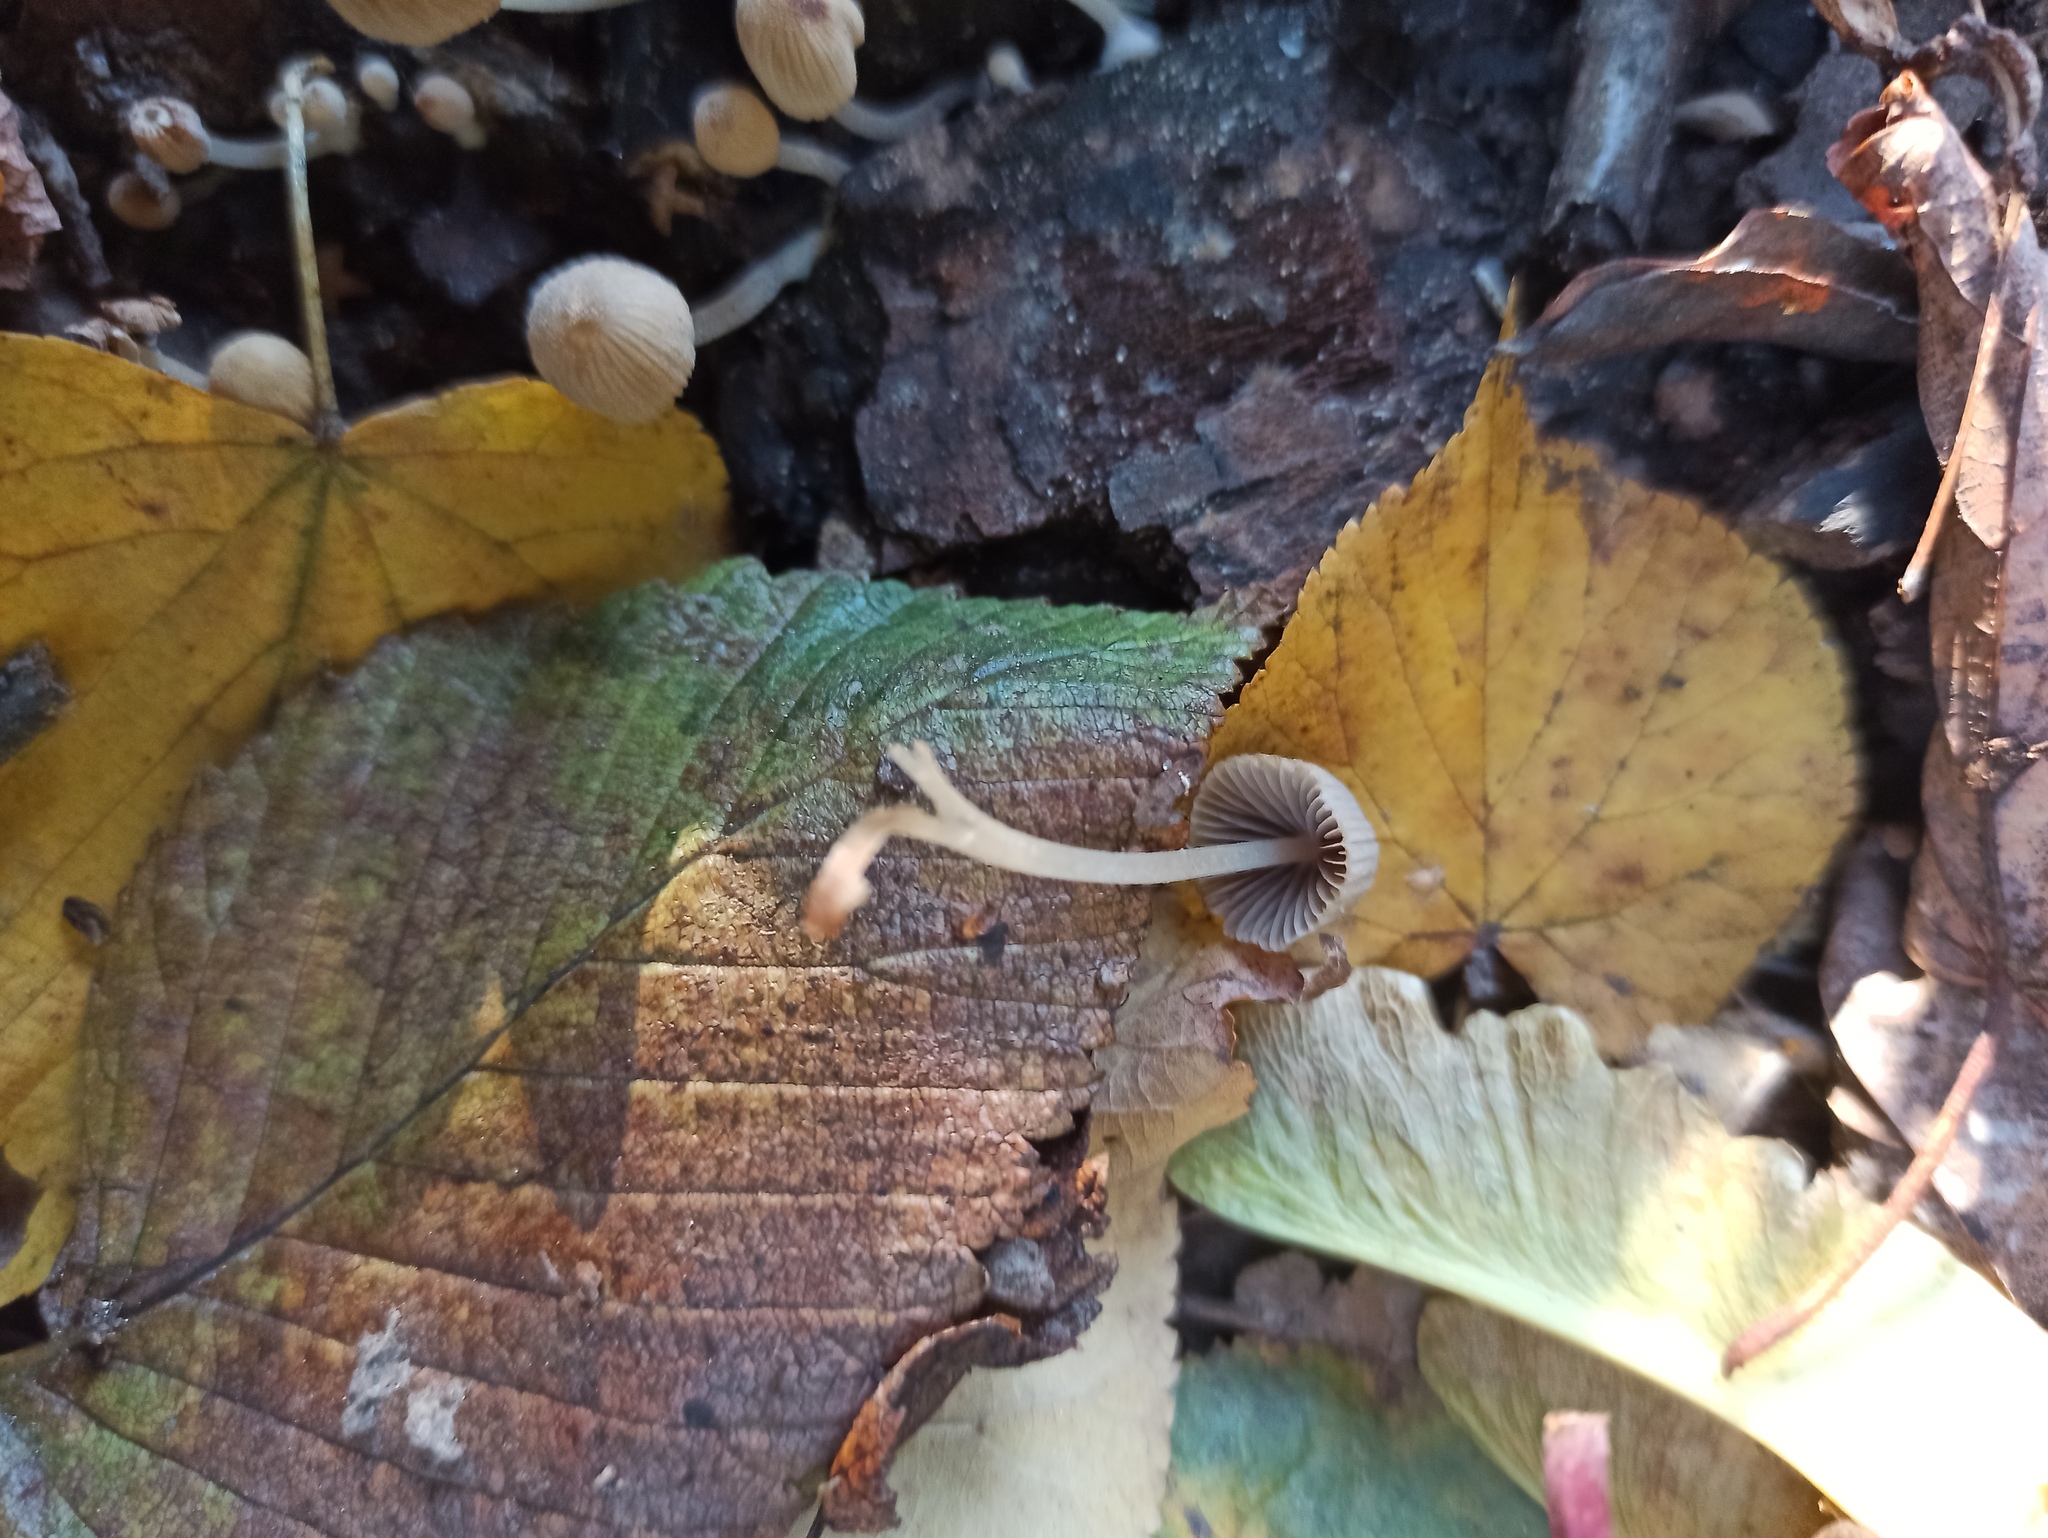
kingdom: Fungi
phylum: Basidiomycota
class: Agaricomycetes
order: Agaricales
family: Psathyrellaceae
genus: Coprinellus
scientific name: Coprinellus disseminatus
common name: Fairies' bonnets
